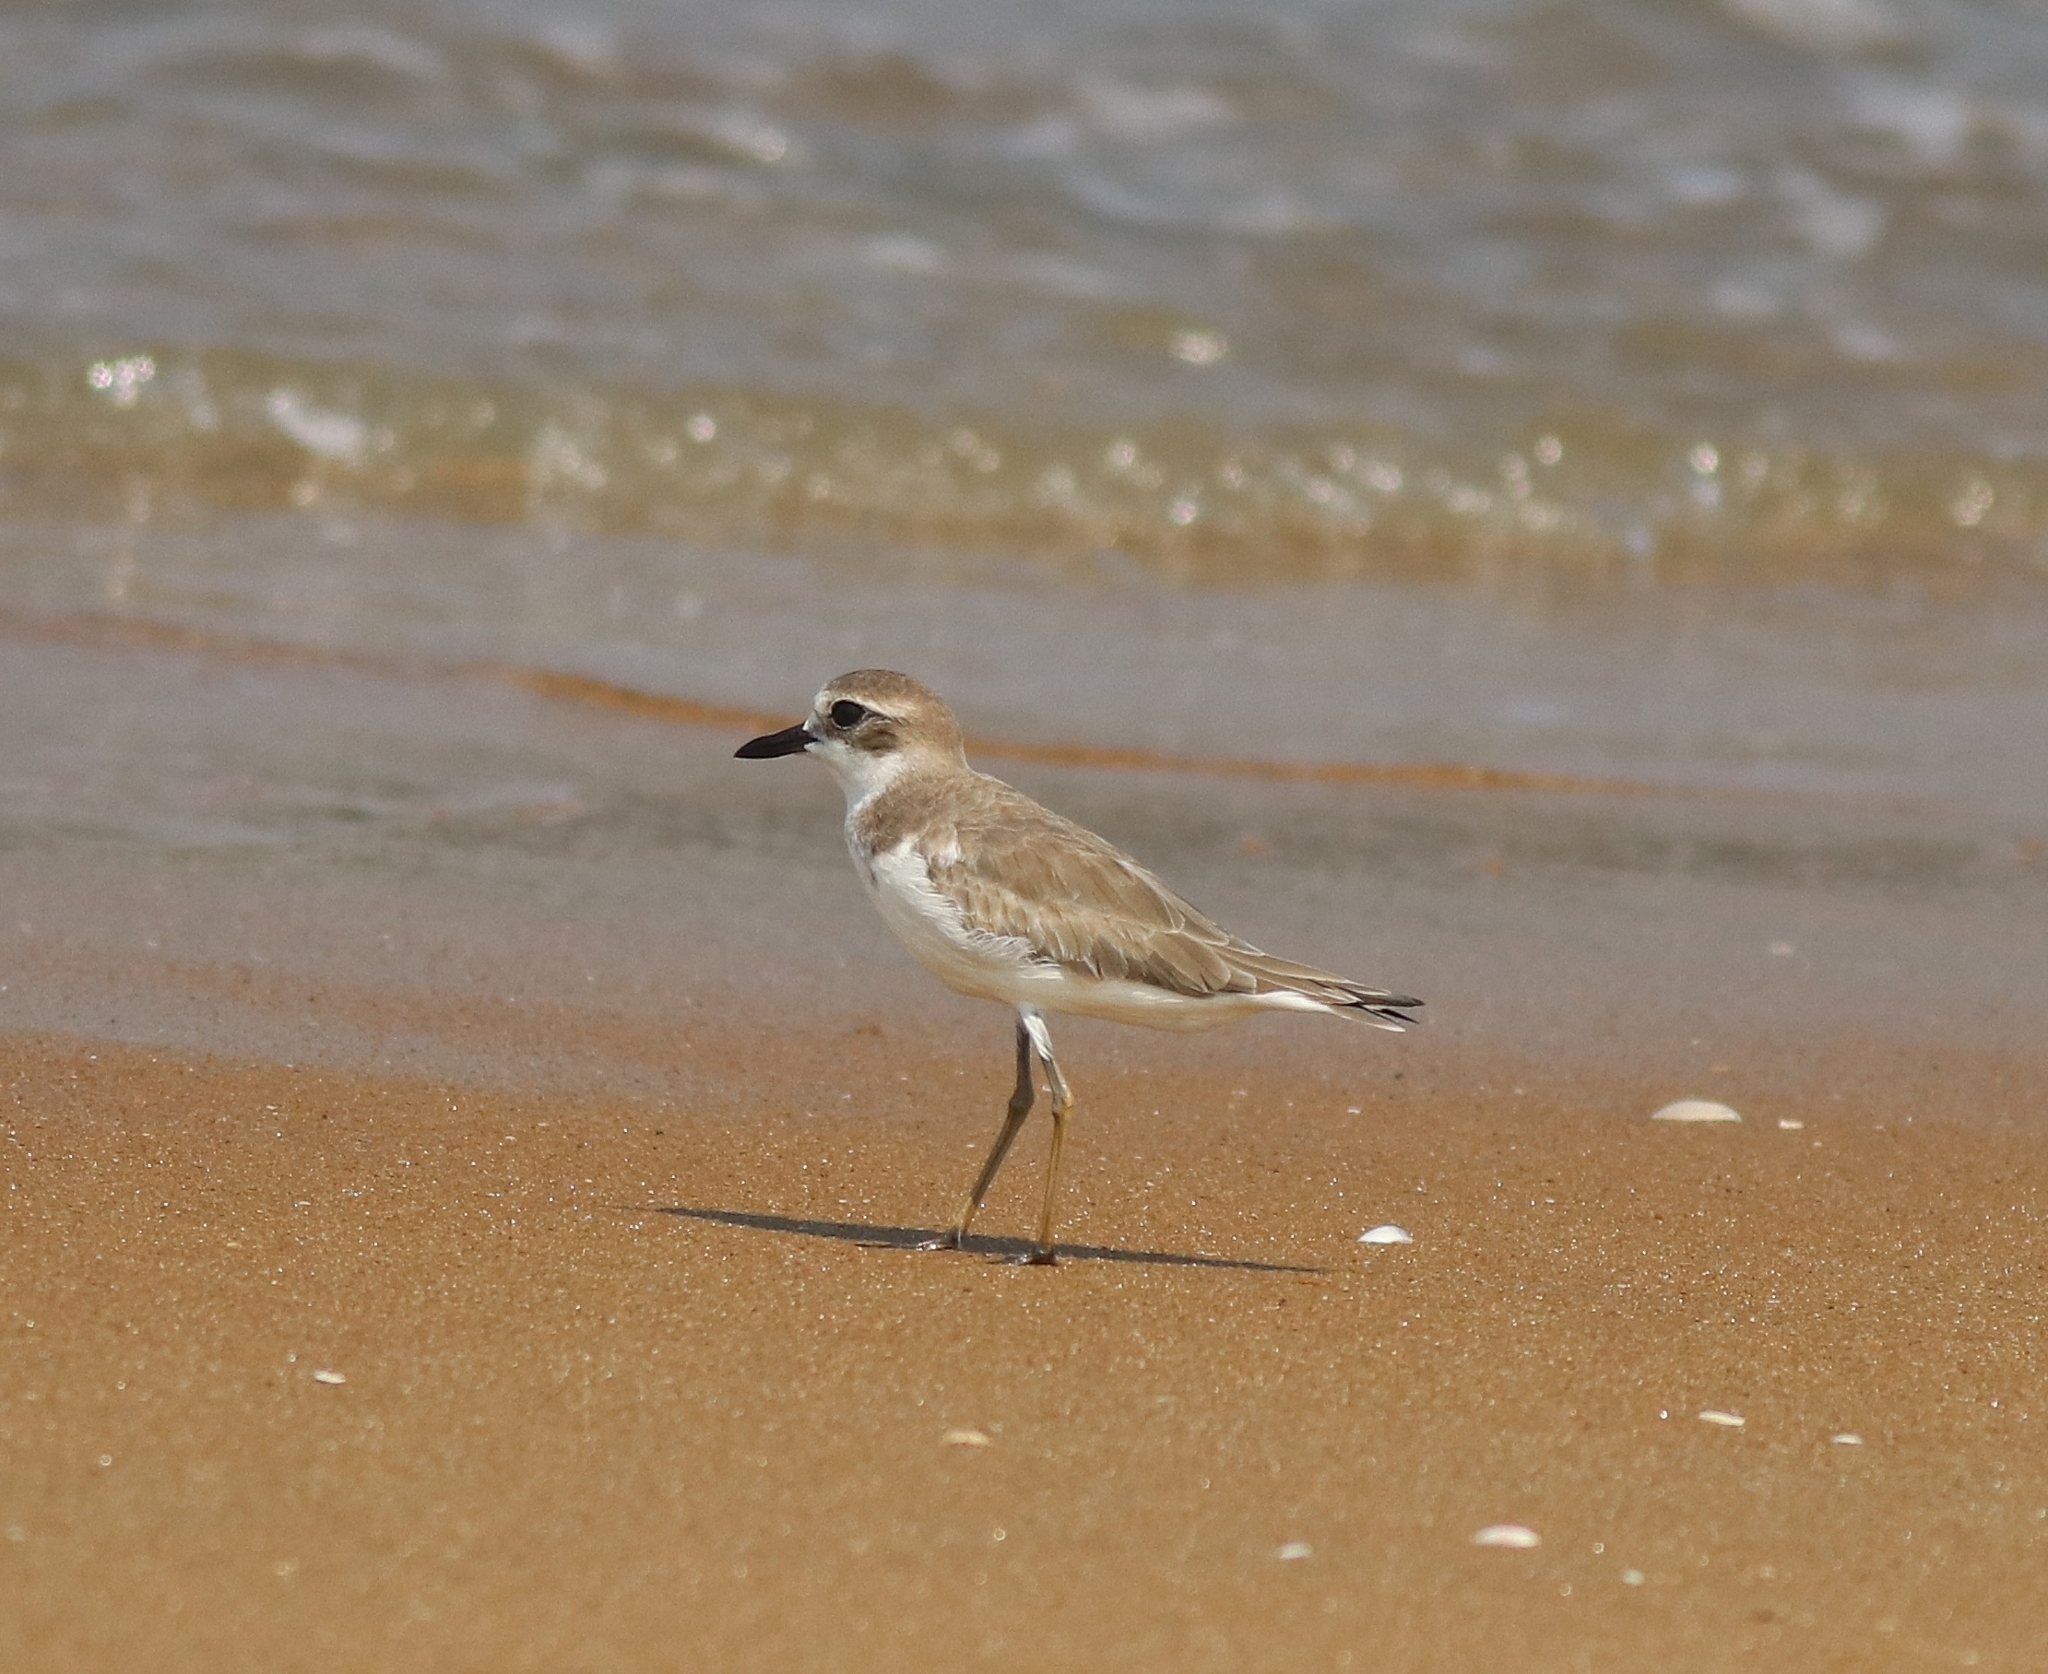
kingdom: Animalia
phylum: Chordata
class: Aves
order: Charadriiformes
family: Charadriidae
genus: Charadrius
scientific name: Charadrius leschenaultii
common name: Greater sand plover
